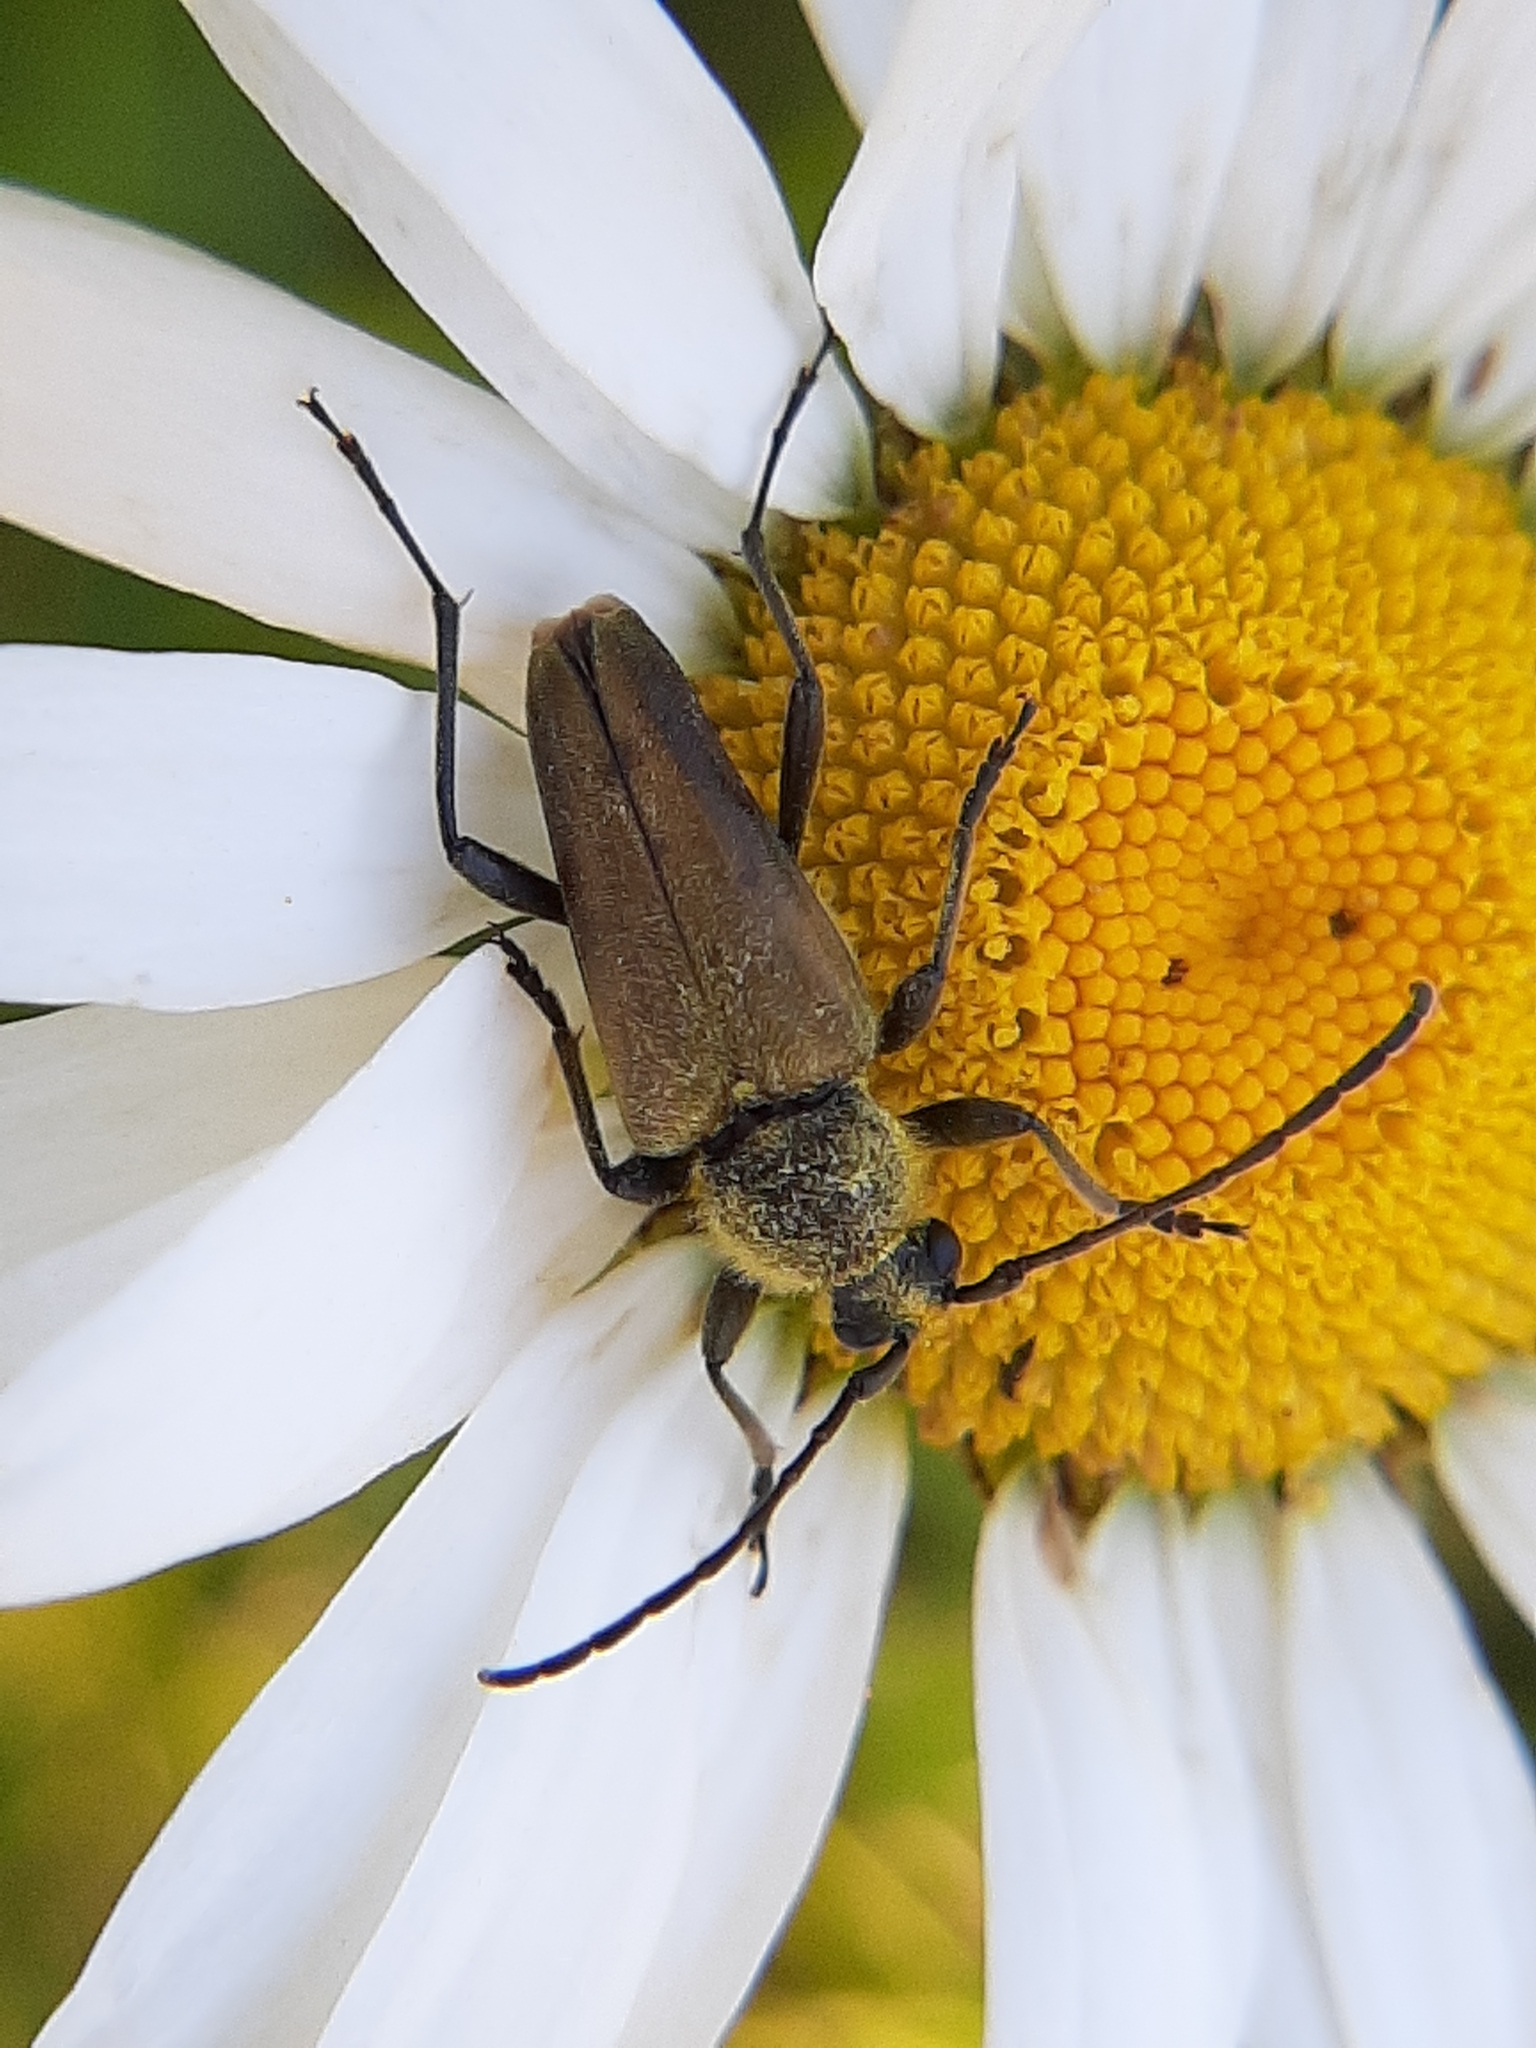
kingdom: Animalia
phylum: Arthropoda
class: Insecta
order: Coleoptera
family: Cerambycidae
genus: Cosmosalia
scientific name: Cosmosalia chrysocoma
